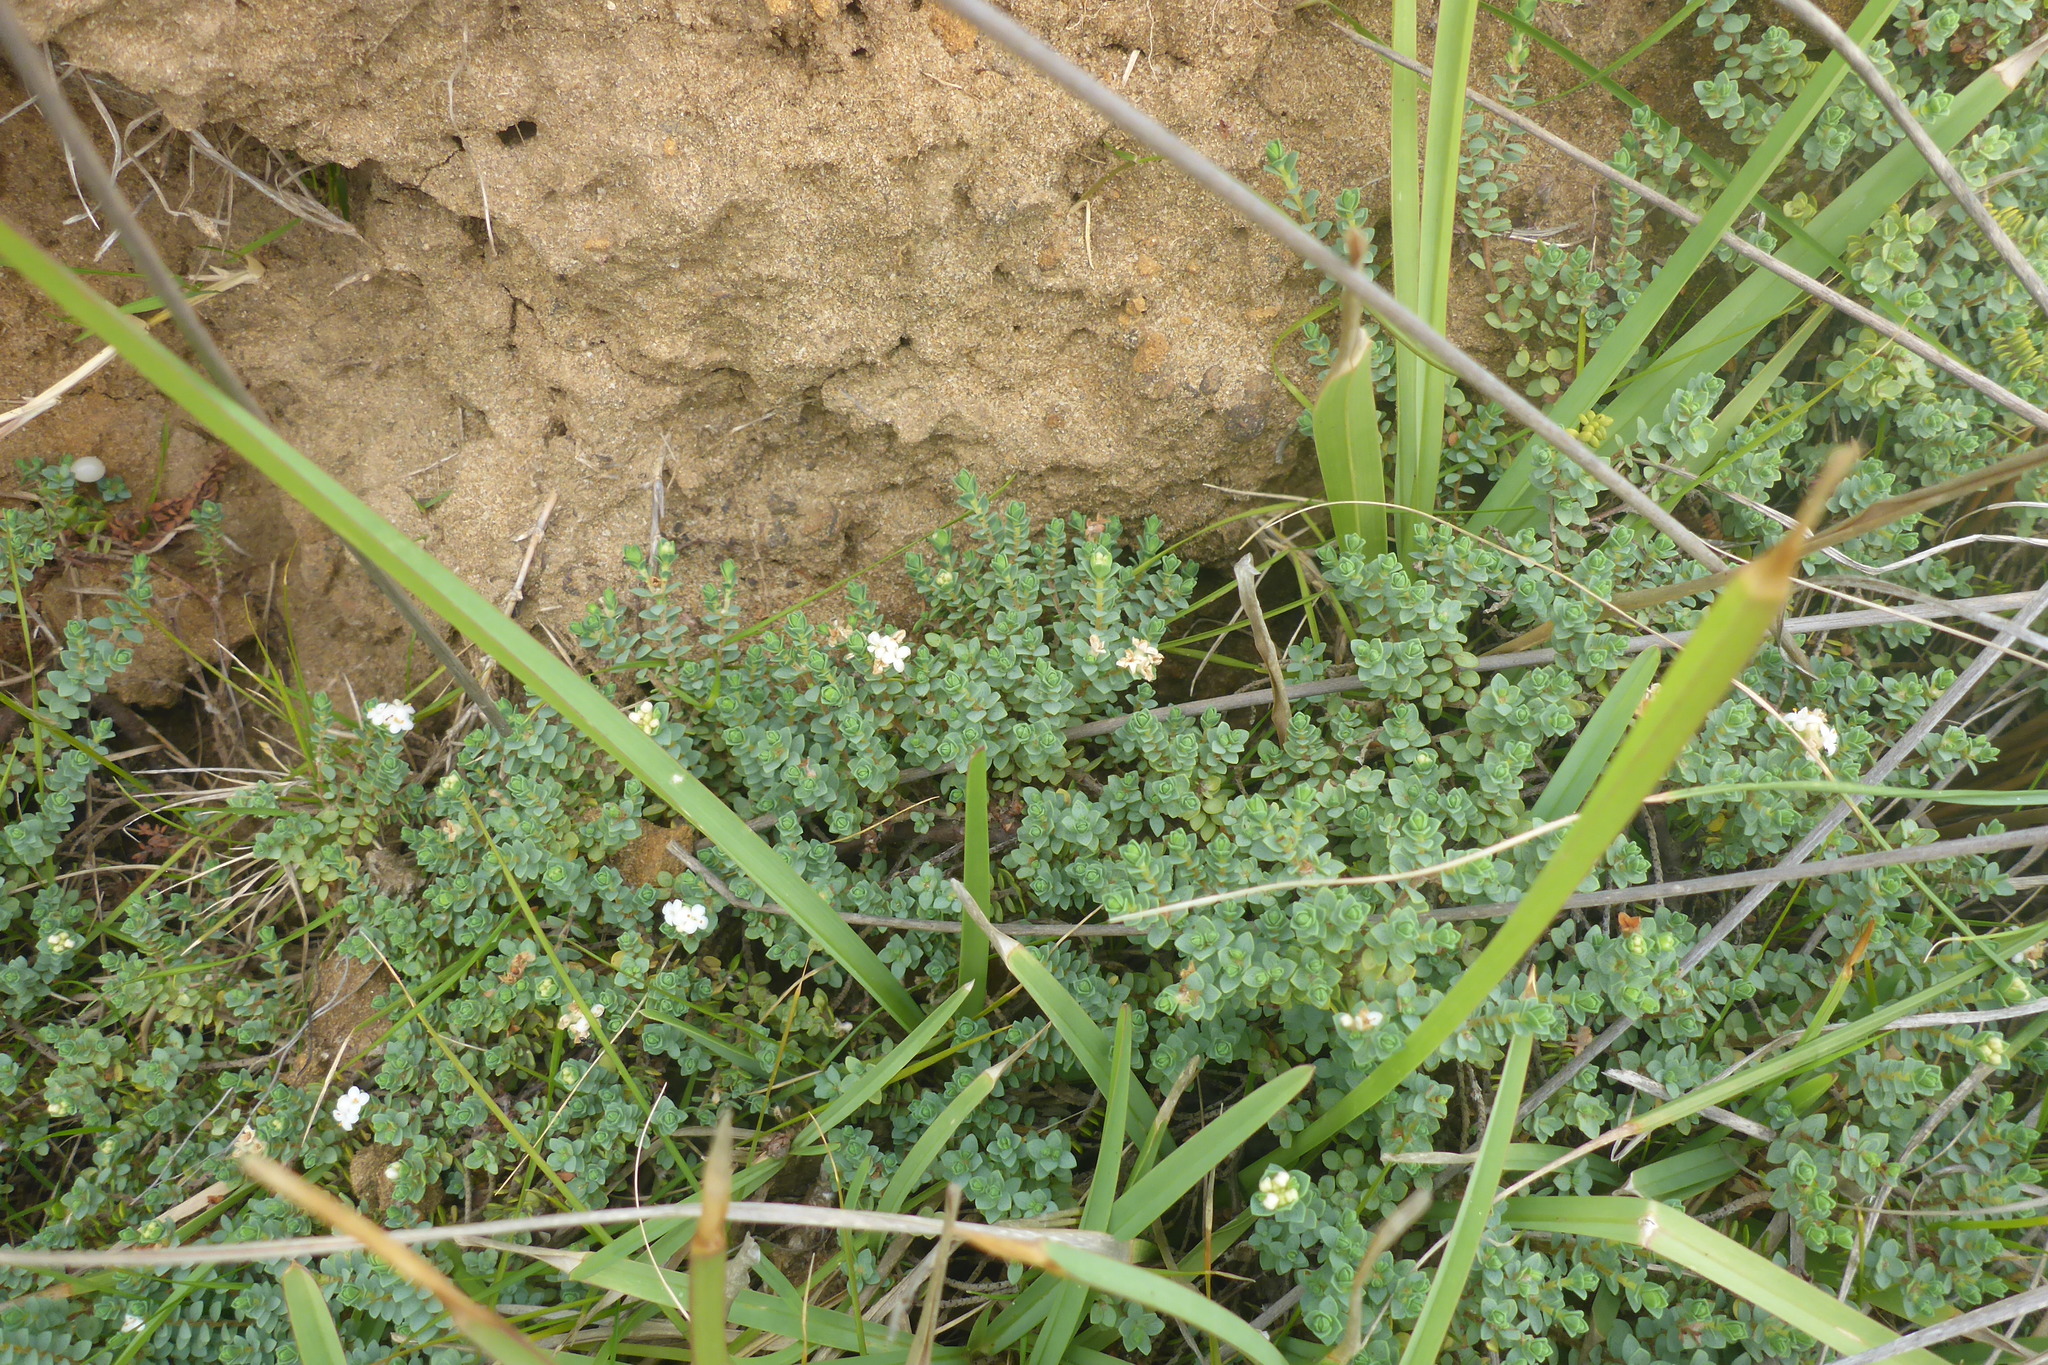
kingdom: Plantae
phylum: Tracheophyta
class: Magnoliopsida
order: Malvales
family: Thymelaeaceae
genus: Pimelea
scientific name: Pimelea prostrata
